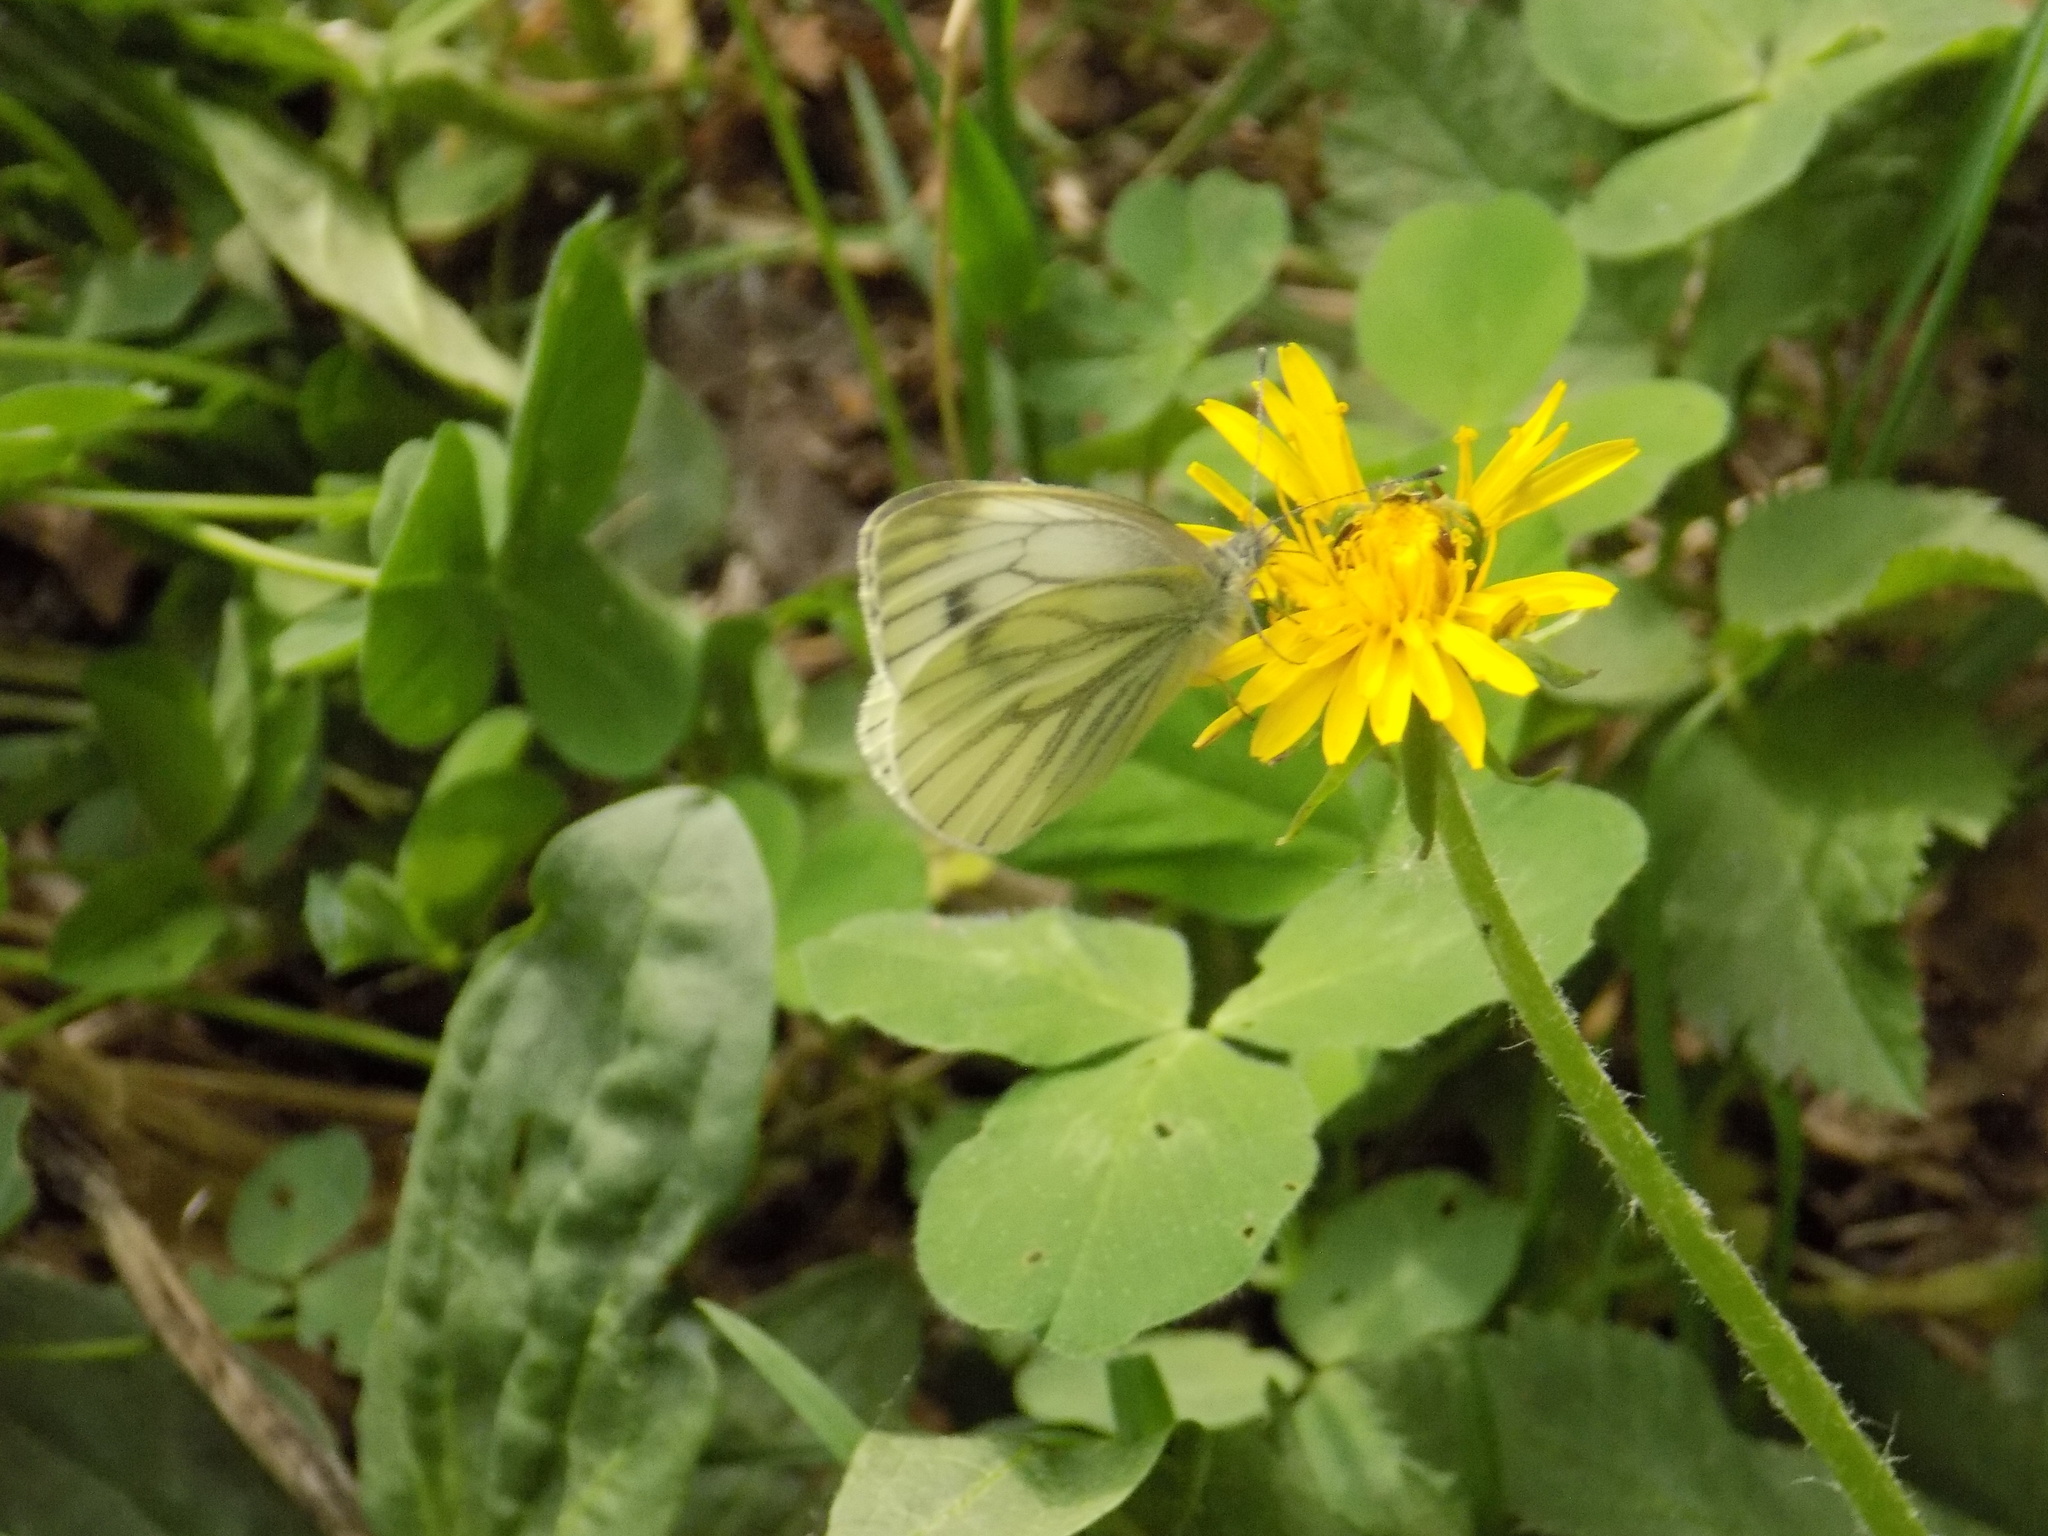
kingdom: Animalia
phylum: Arthropoda
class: Insecta
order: Lepidoptera
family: Pieridae
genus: Pieris
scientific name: Pieris napi
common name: Green-veined white
